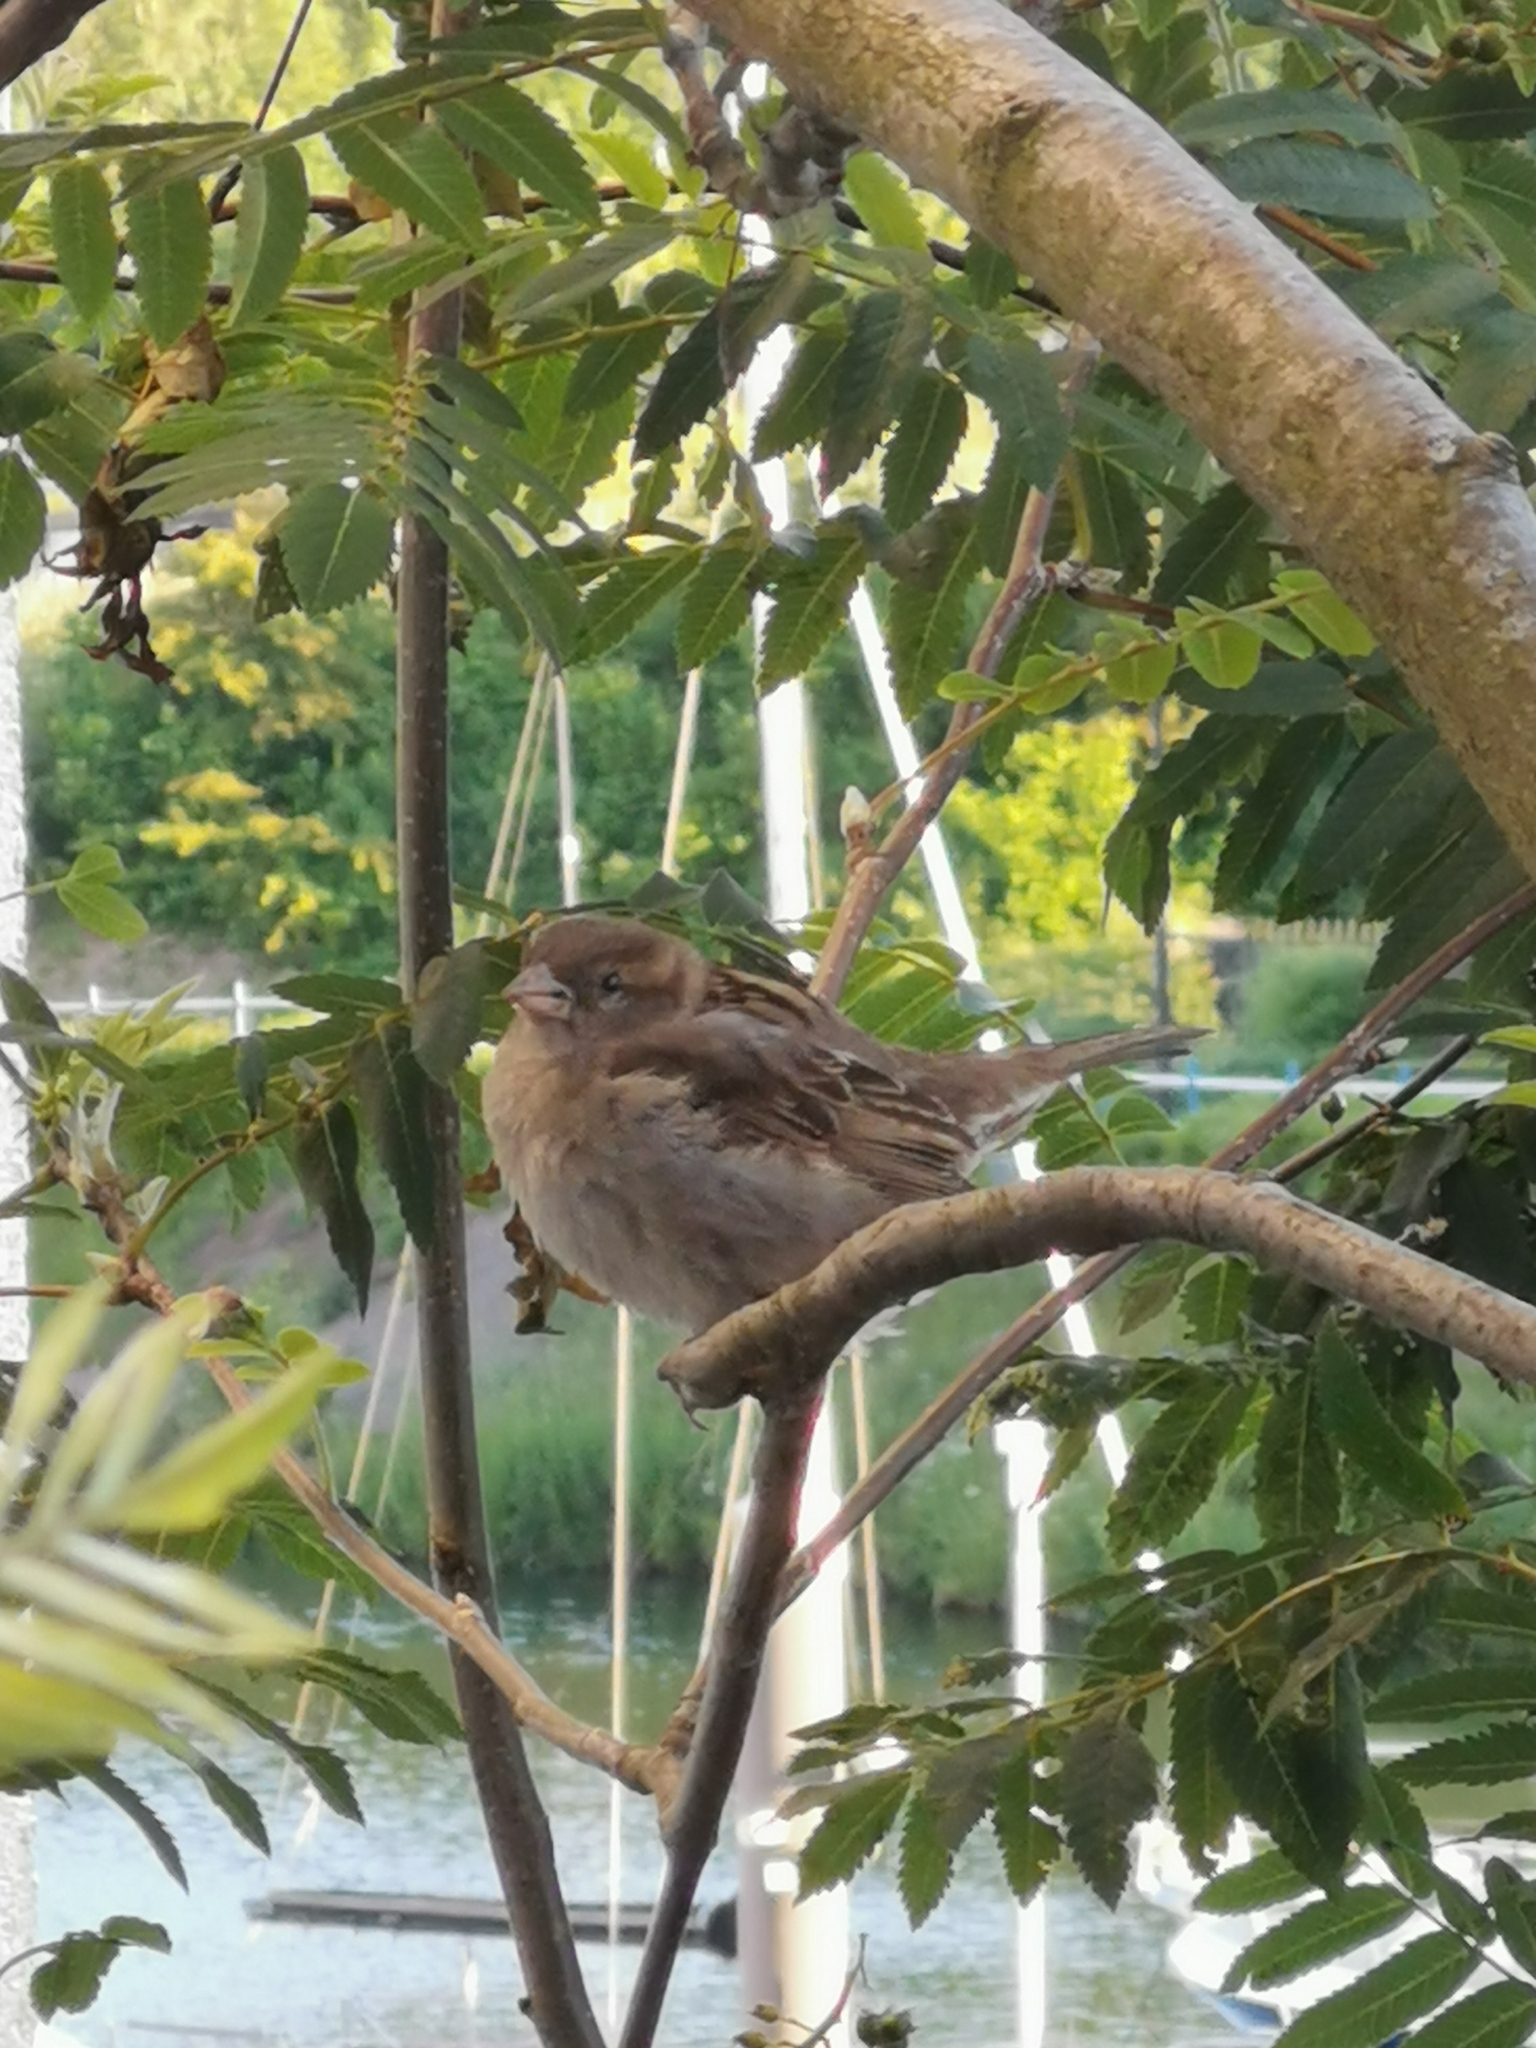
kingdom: Animalia
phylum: Chordata
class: Aves
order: Passeriformes
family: Passeridae
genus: Passer
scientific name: Passer domesticus
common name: House sparrow
